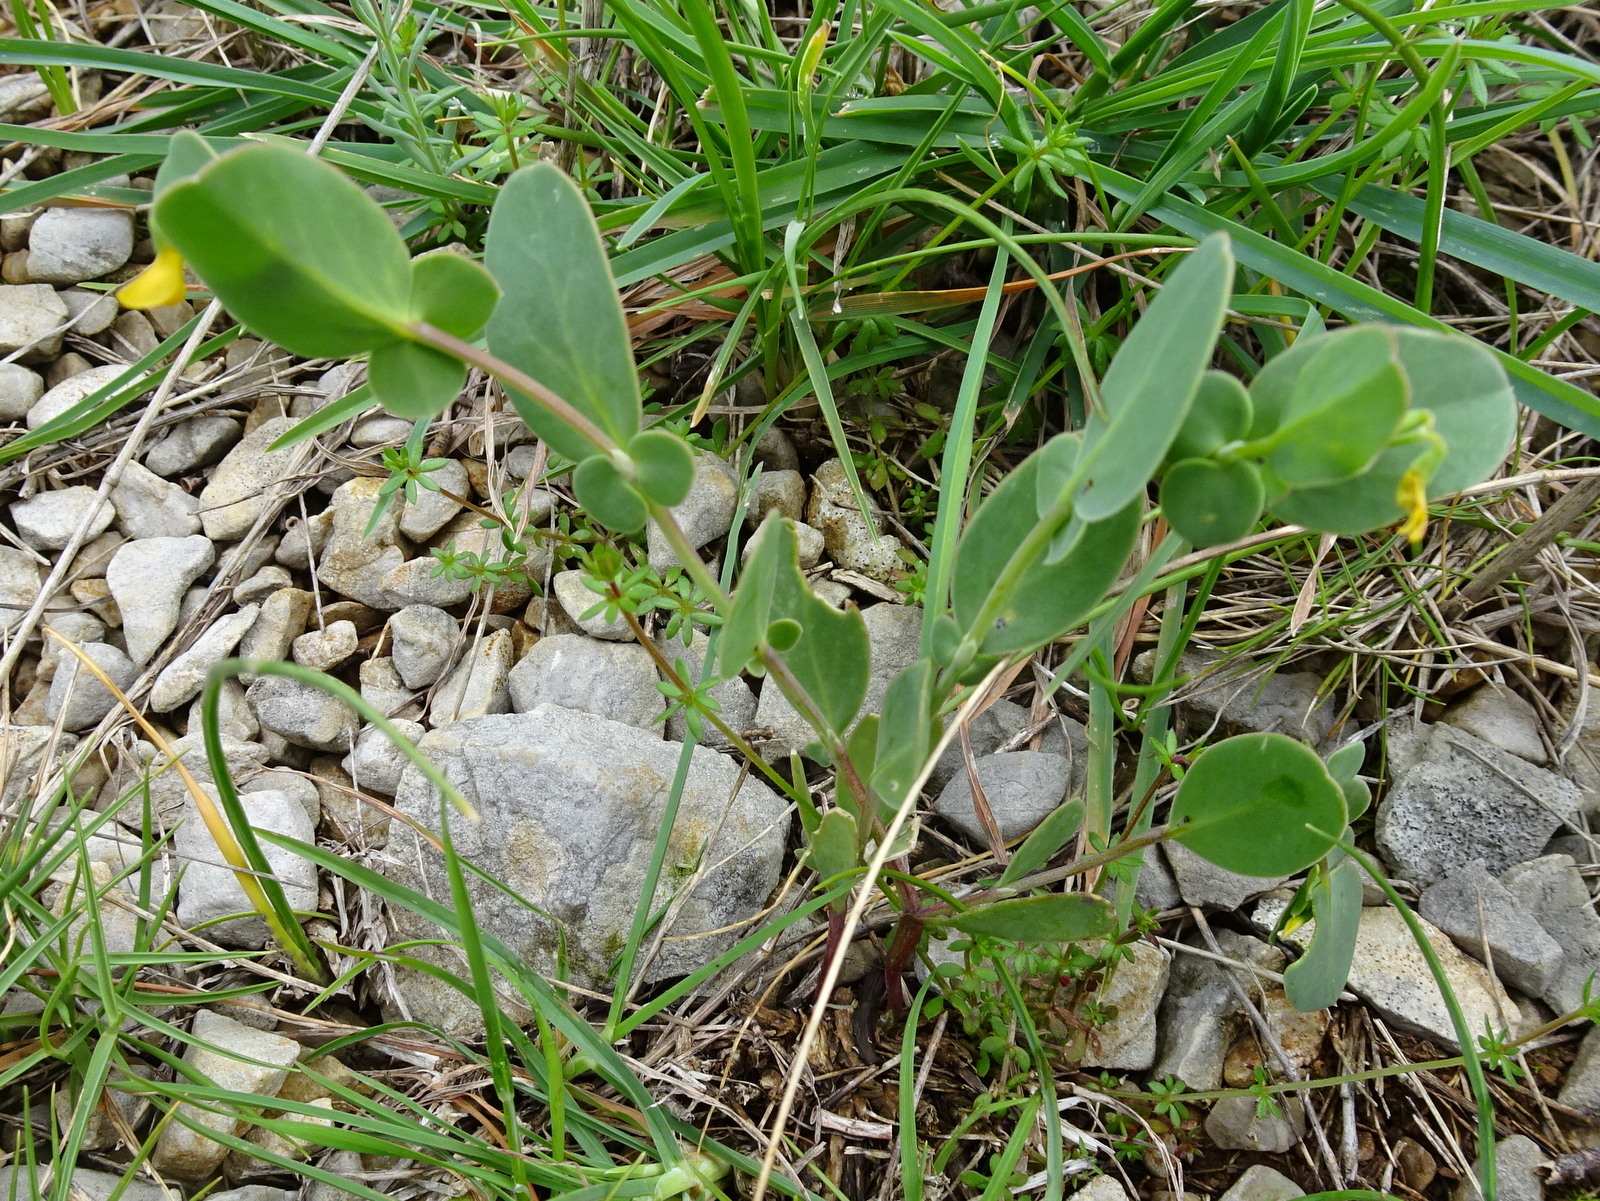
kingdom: Plantae
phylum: Tracheophyta
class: Magnoliopsida
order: Fabales
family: Fabaceae
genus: Coronilla
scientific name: Coronilla scorpioides
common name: Annual scorpion-vetch
